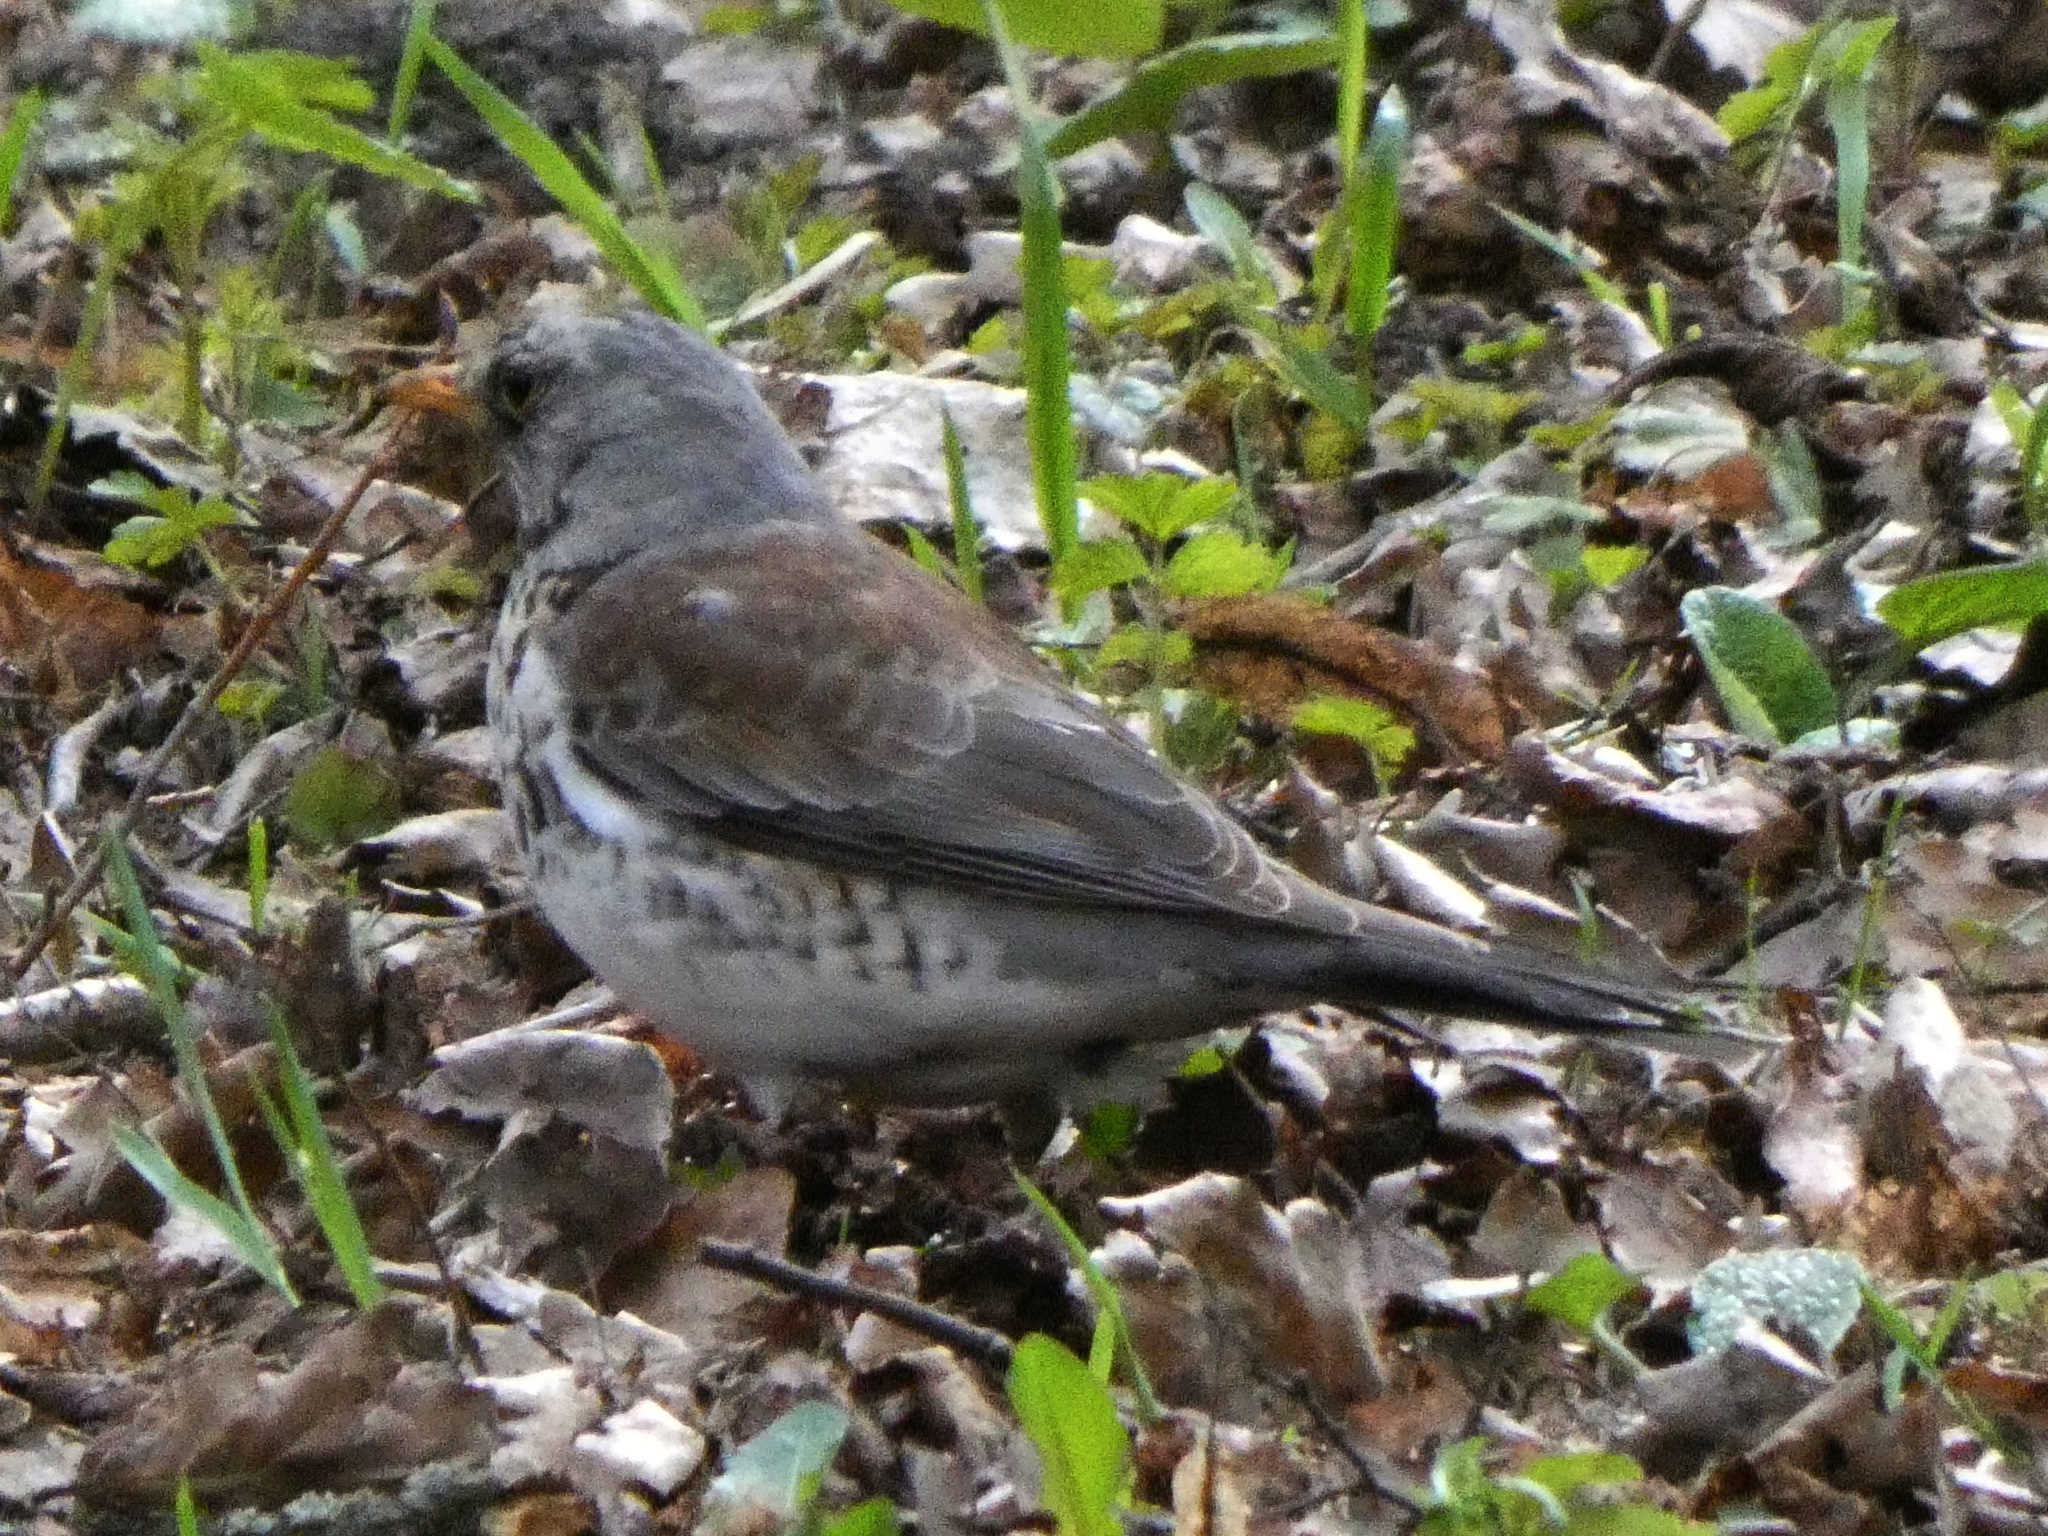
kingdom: Animalia
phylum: Chordata
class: Aves
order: Passeriformes
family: Turdidae
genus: Turdus
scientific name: Turdus pilaris
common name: Fieldfare
